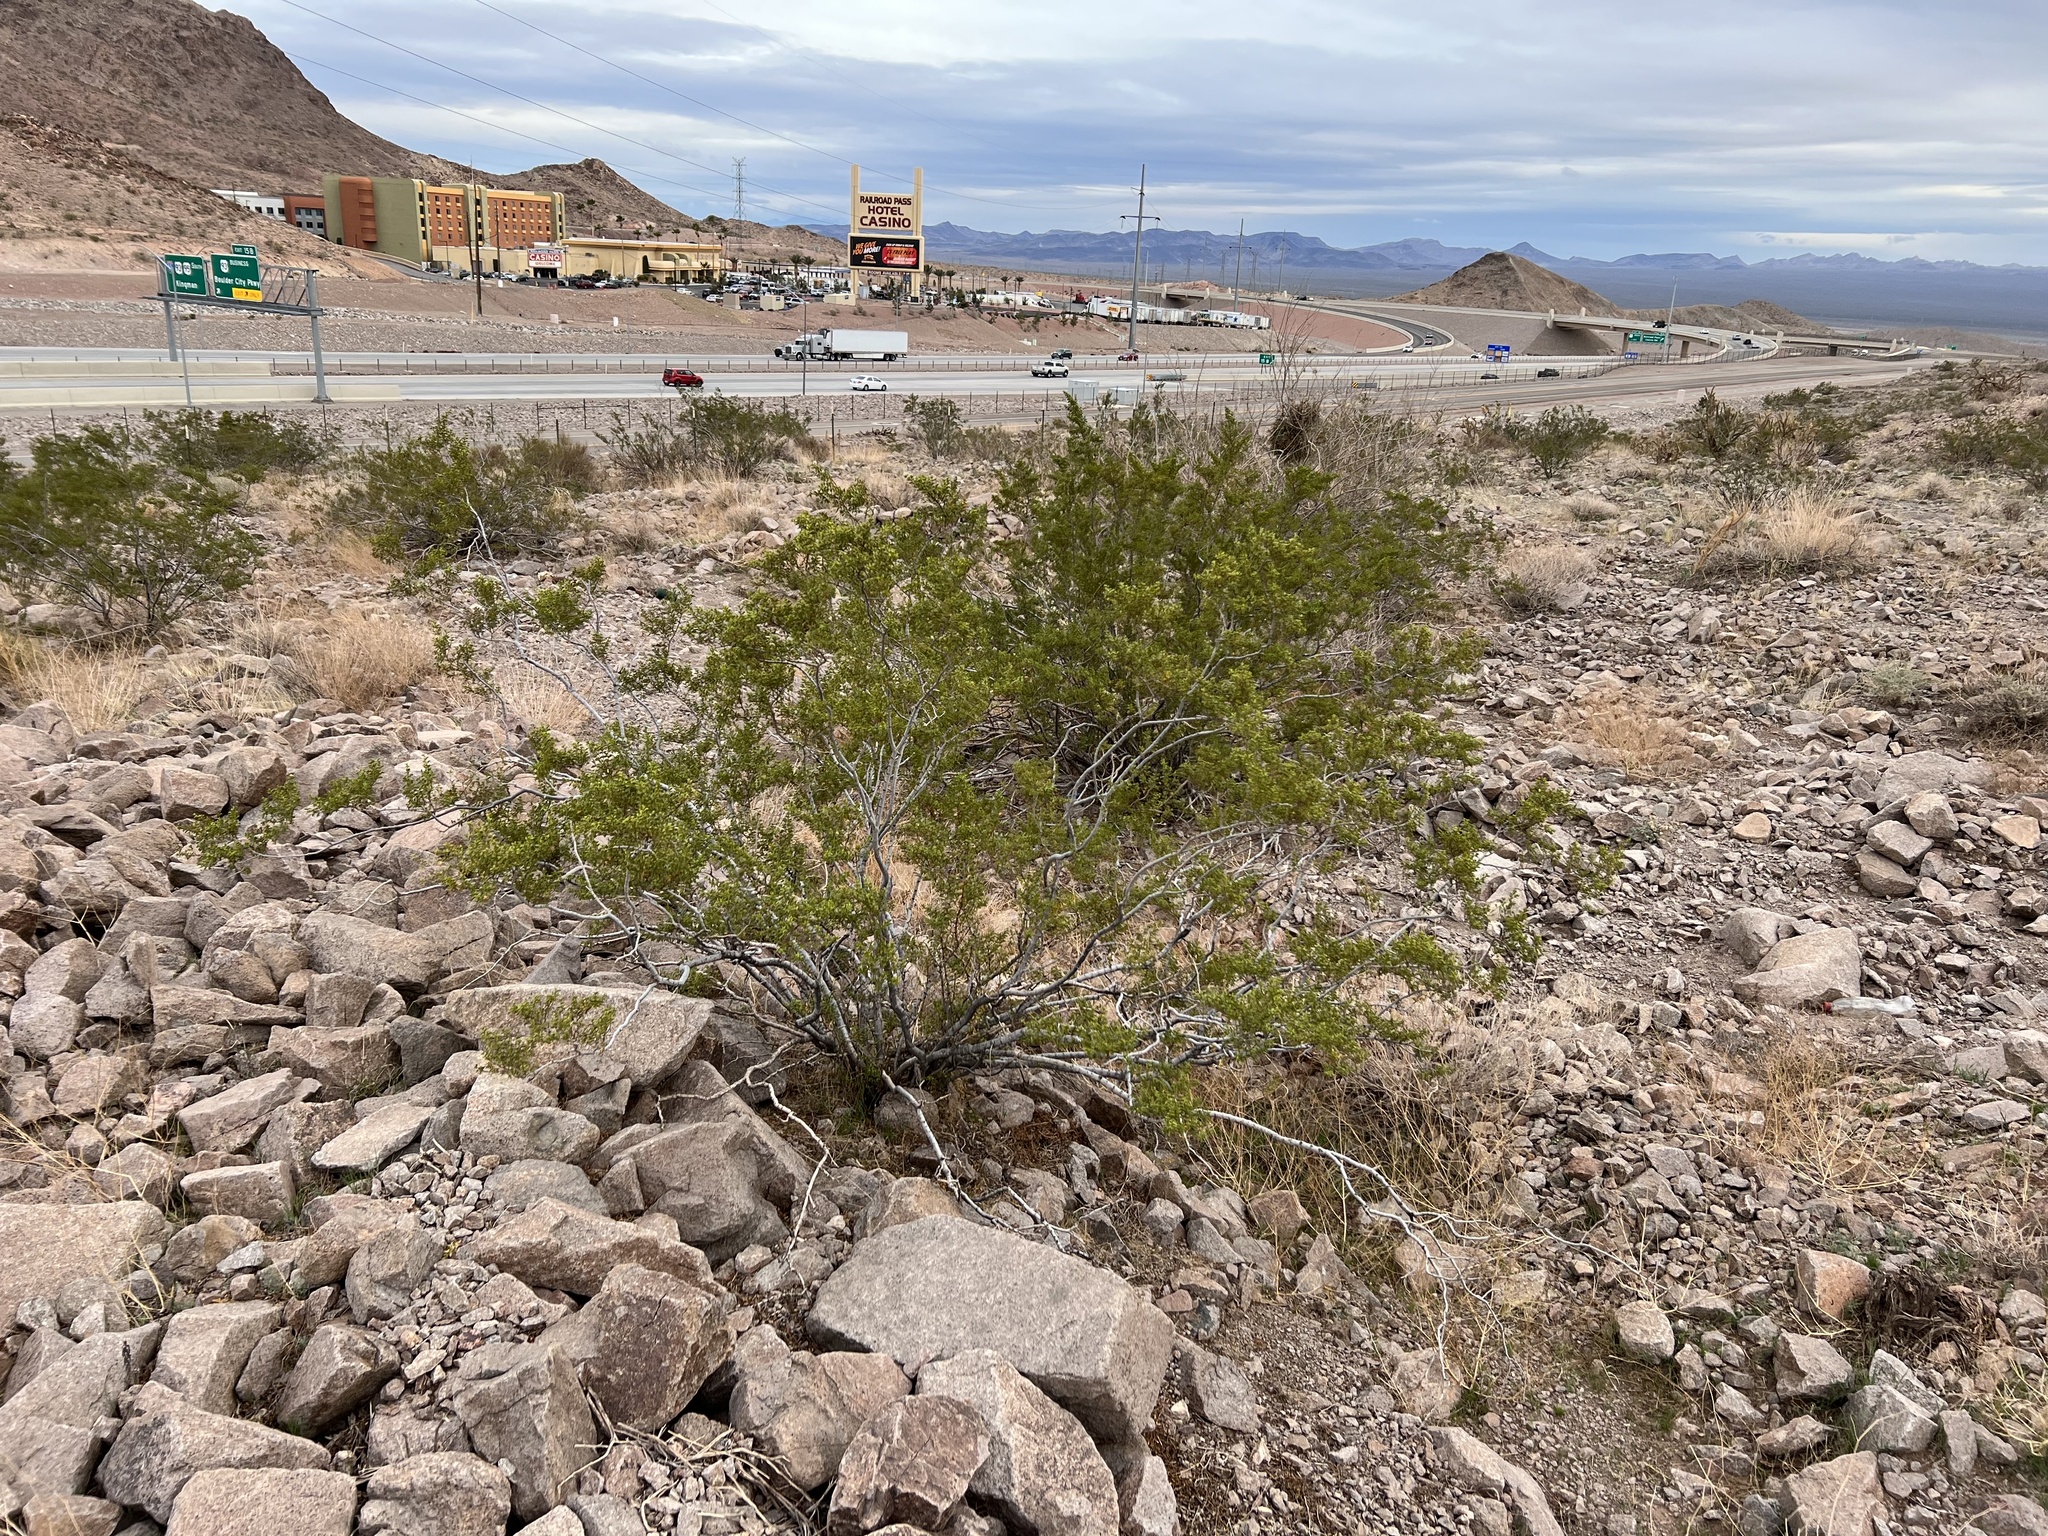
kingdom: Plantae
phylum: Tracheophyta
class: Magnoliopsida
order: Zygophyllales
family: Zygophyllaceae
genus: Larrea
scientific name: Larrea tridentata
